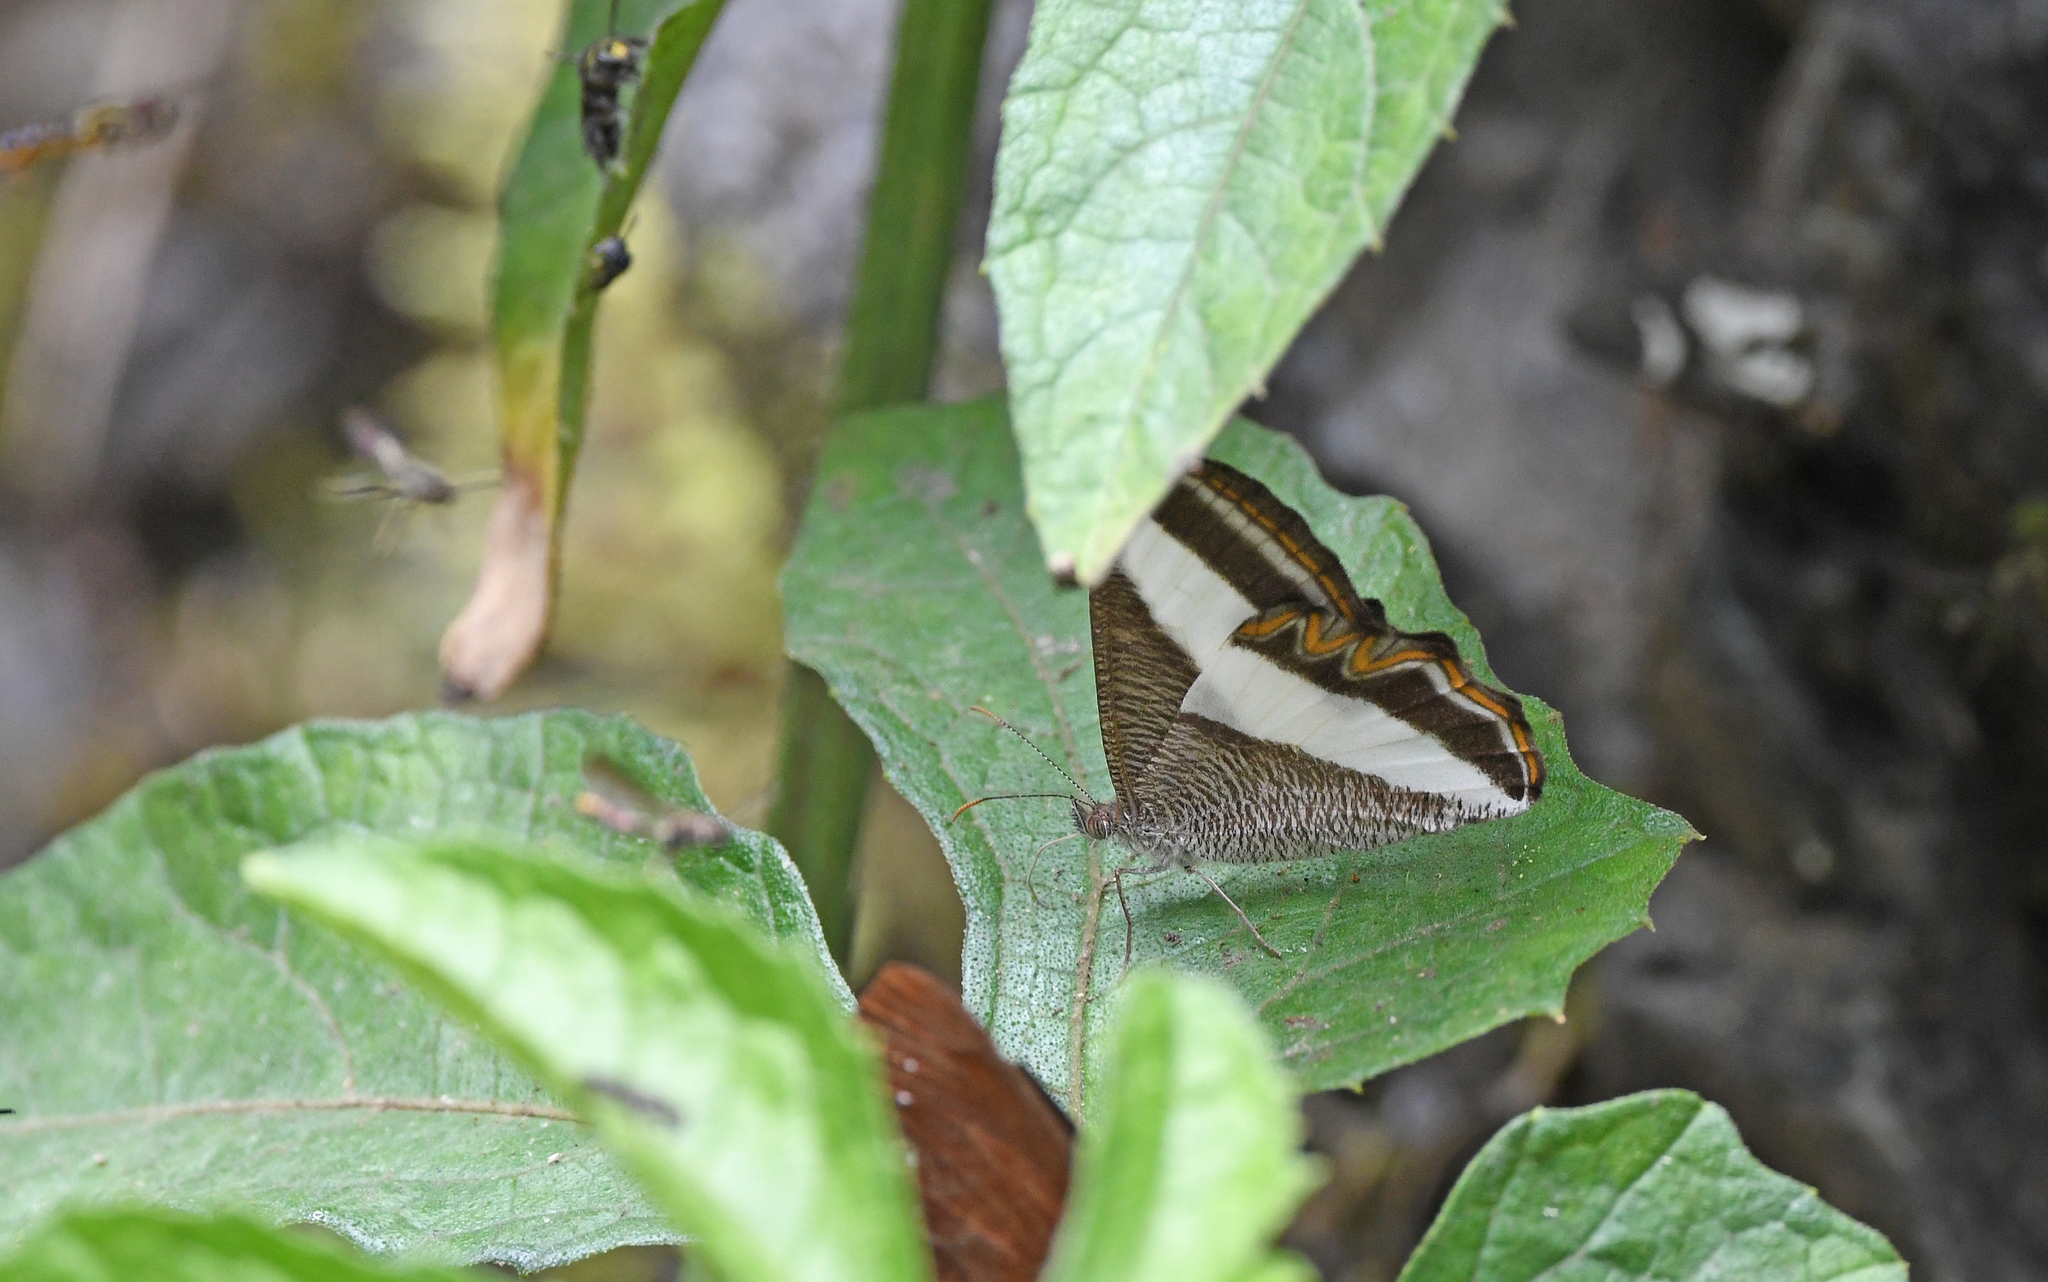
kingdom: Animalia
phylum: Arthropoda
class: Insecta
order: Lepidoptera
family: Nymphalidae
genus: Oressinoma
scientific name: Oressinoma typhla
